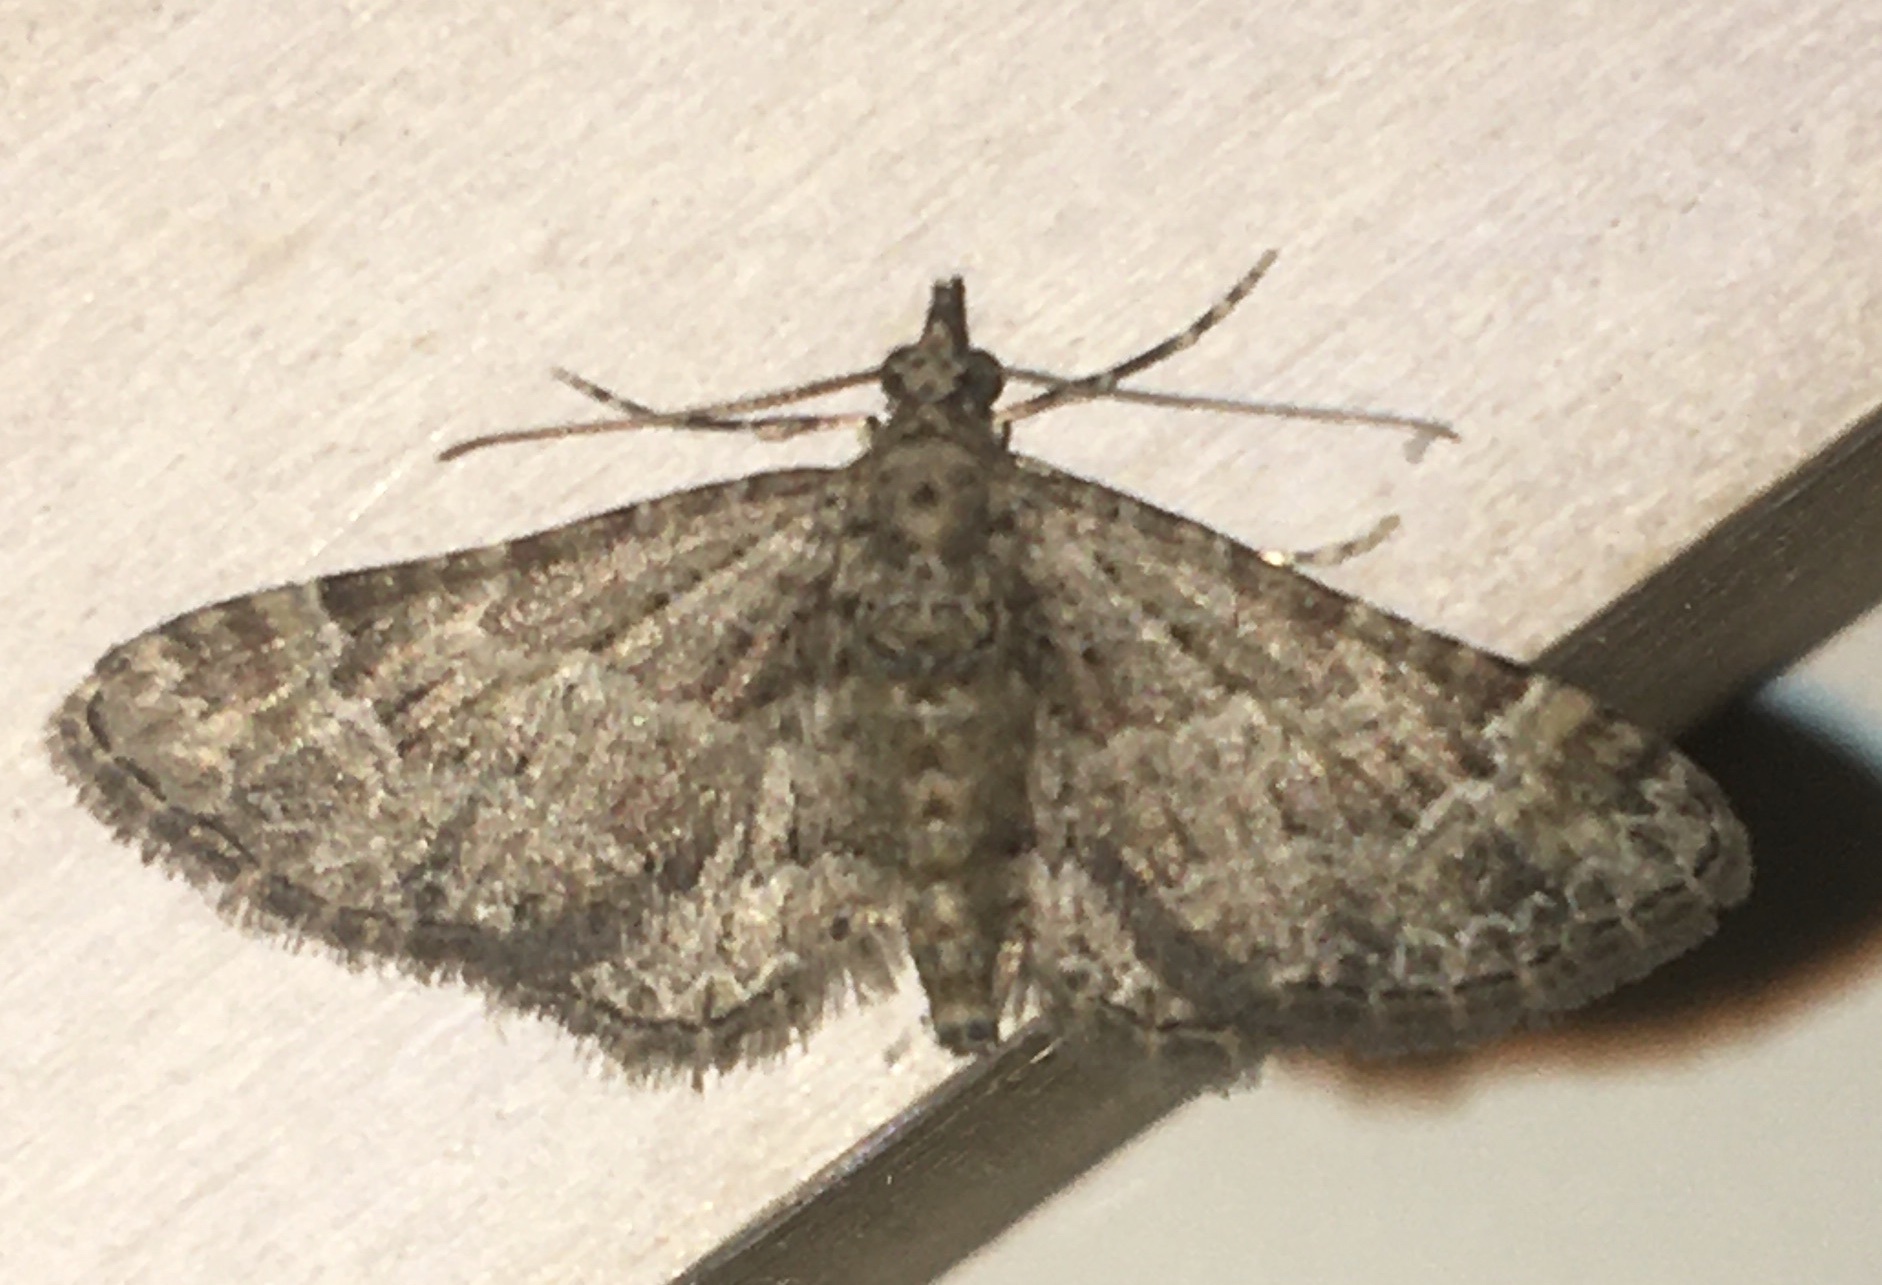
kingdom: Animalia
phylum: Arthropoda
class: Insecta
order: Lepidoptera
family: Geometridae
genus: Gymnoscelis
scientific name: Gymnoscelis rufifasciata
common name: Double-striped pug
